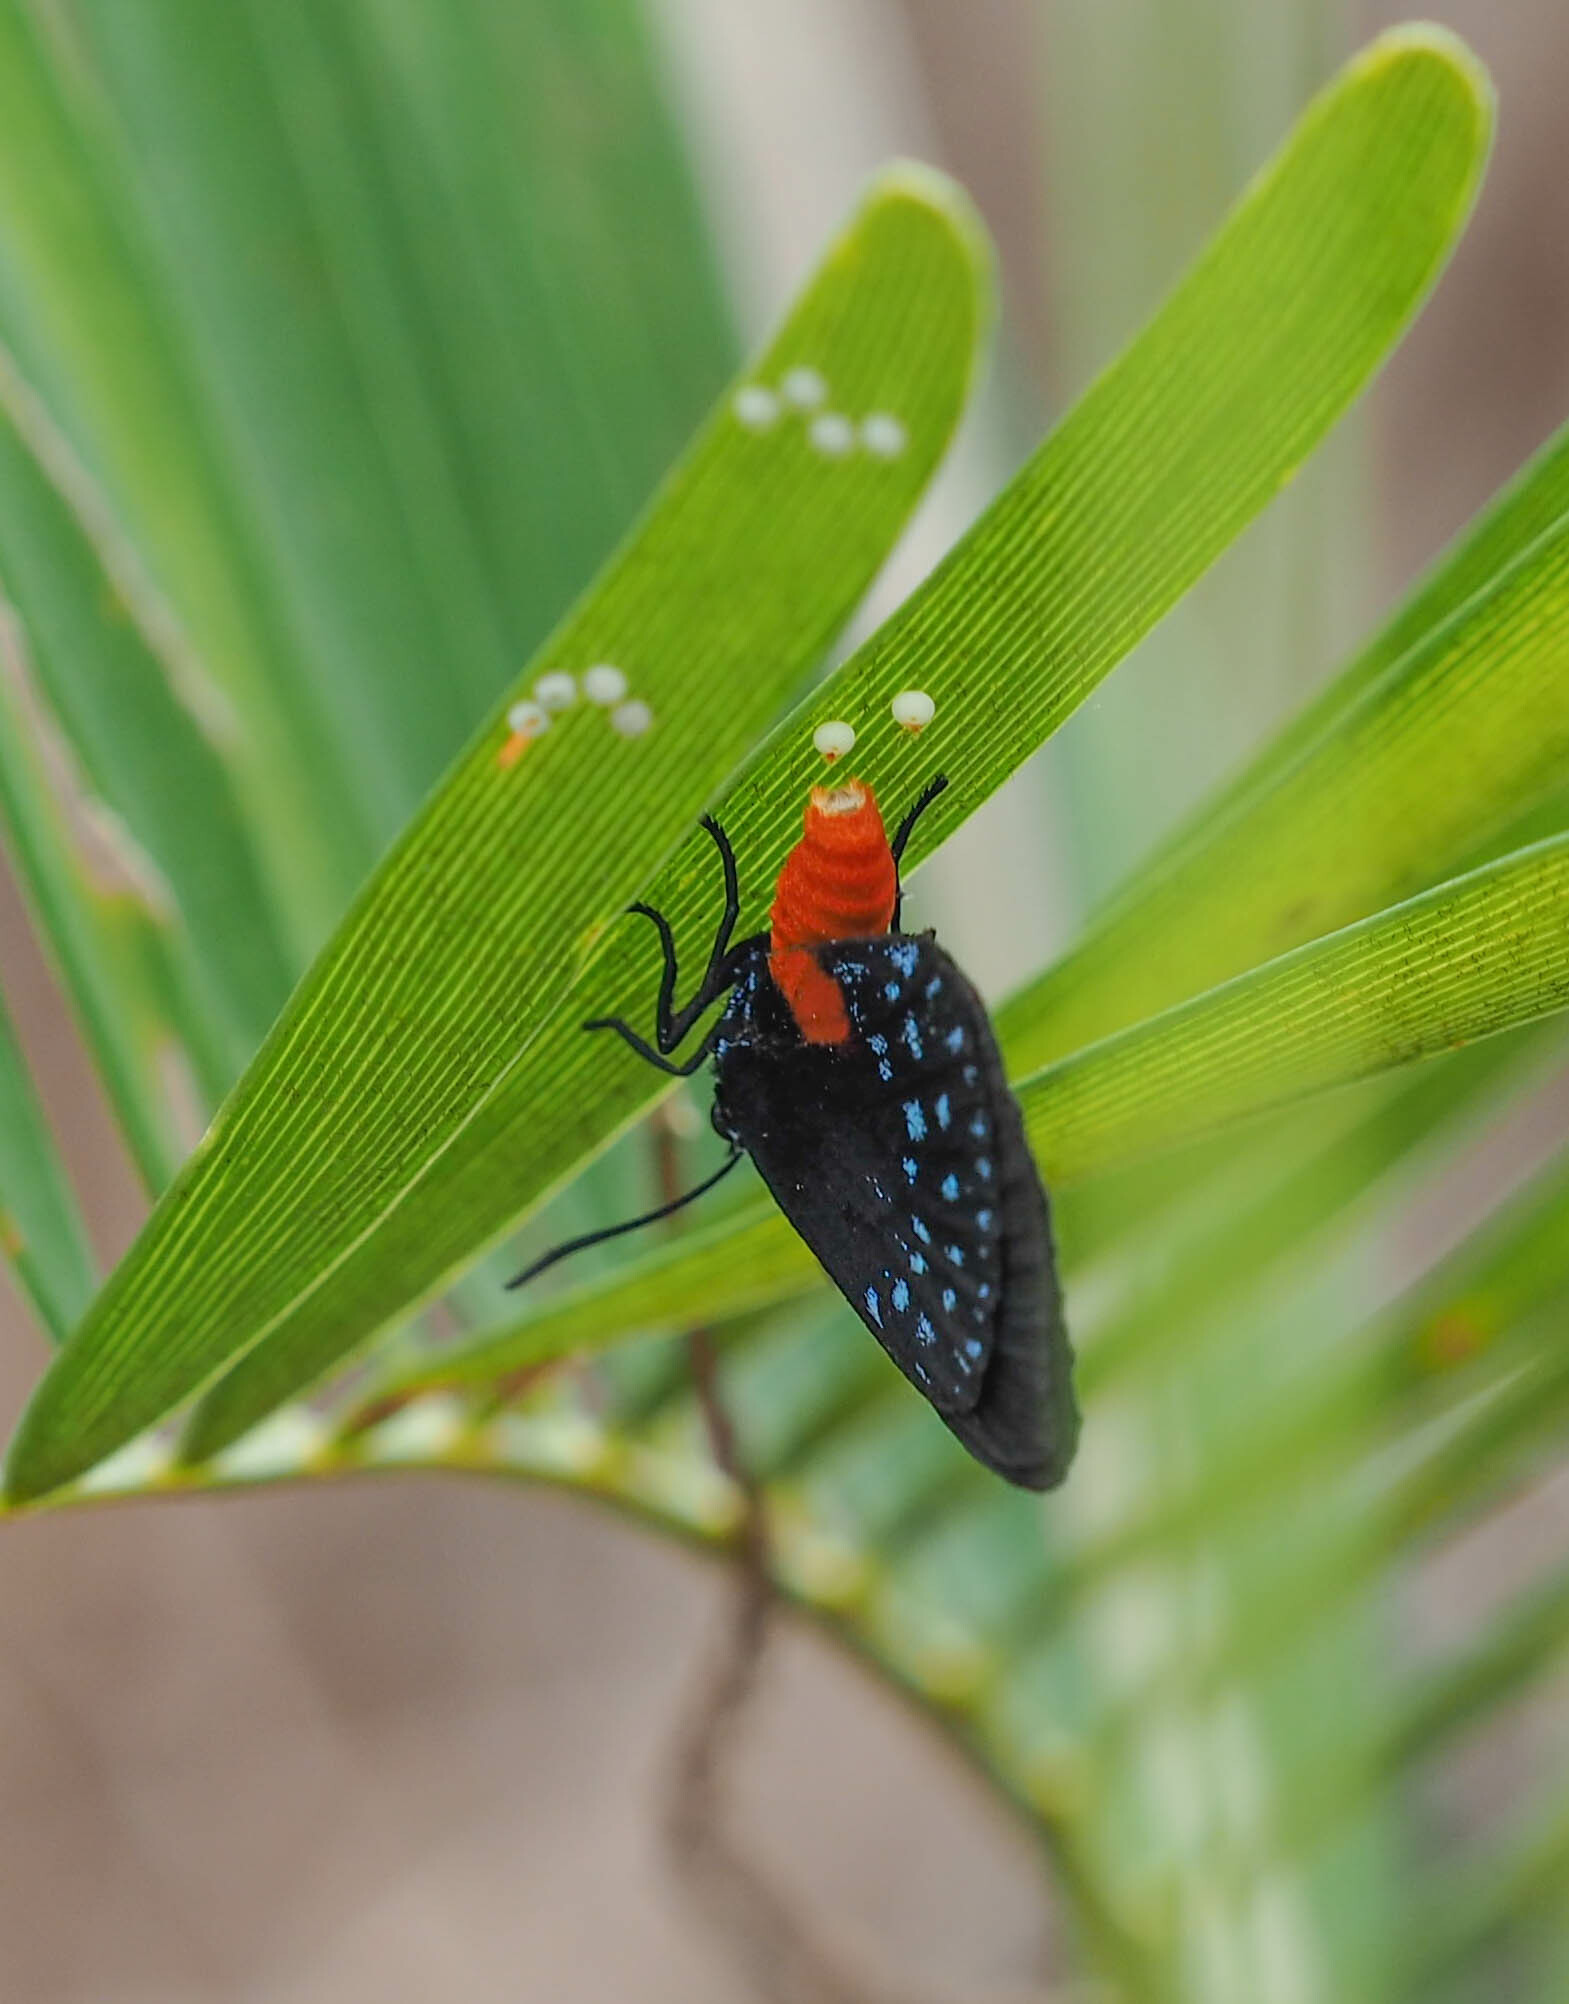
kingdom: Animalia
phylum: Arthropoda
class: Insecta
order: Lepidoptera
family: Lycaenidae
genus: Eumaeus
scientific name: Eumaeus atala
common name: Atala
